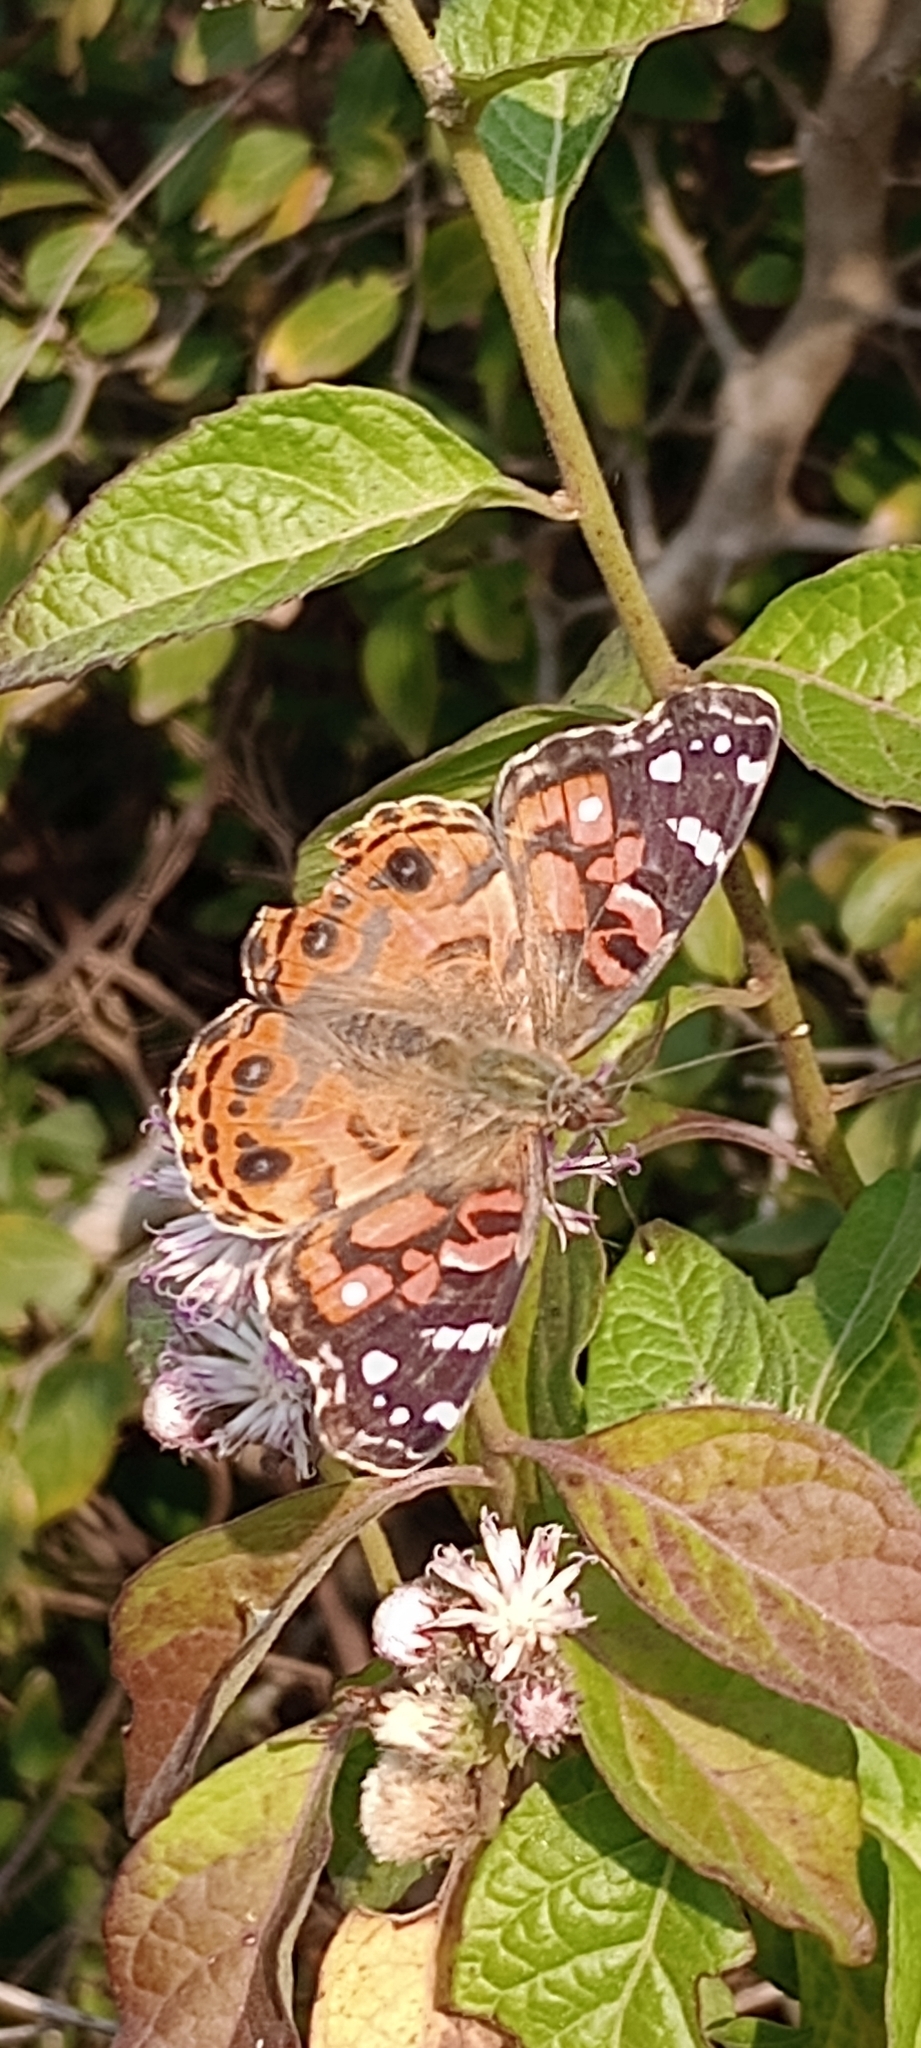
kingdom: Animalia
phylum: Arthropoda
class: Insecta
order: Lepidoptera
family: Nymphalidae
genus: Vanessa
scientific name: Vanessa braziliensis
